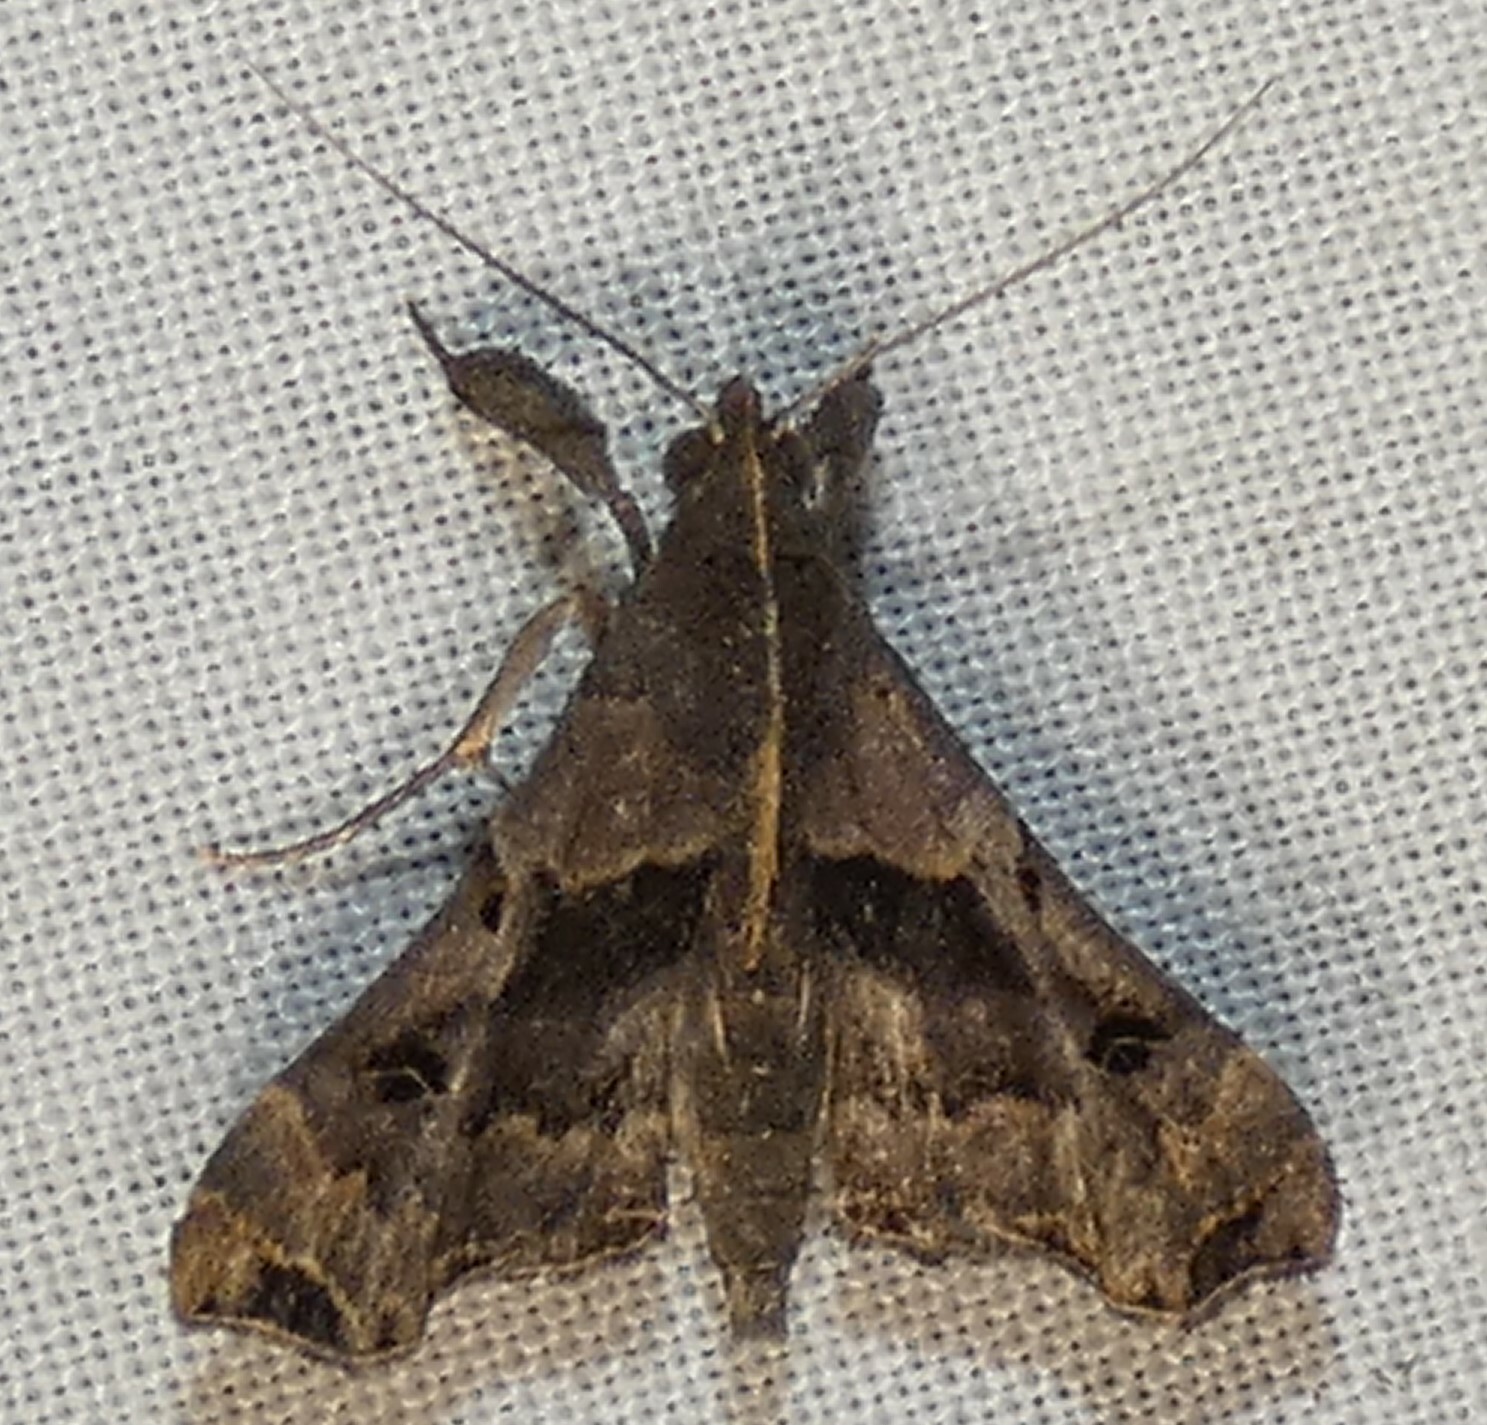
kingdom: Animalia
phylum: Arthropoda
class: Insecta
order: Lepidoptera
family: Erebidae
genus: Palthis
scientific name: Palthis asopialis
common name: Faint-spotted palthis moth
